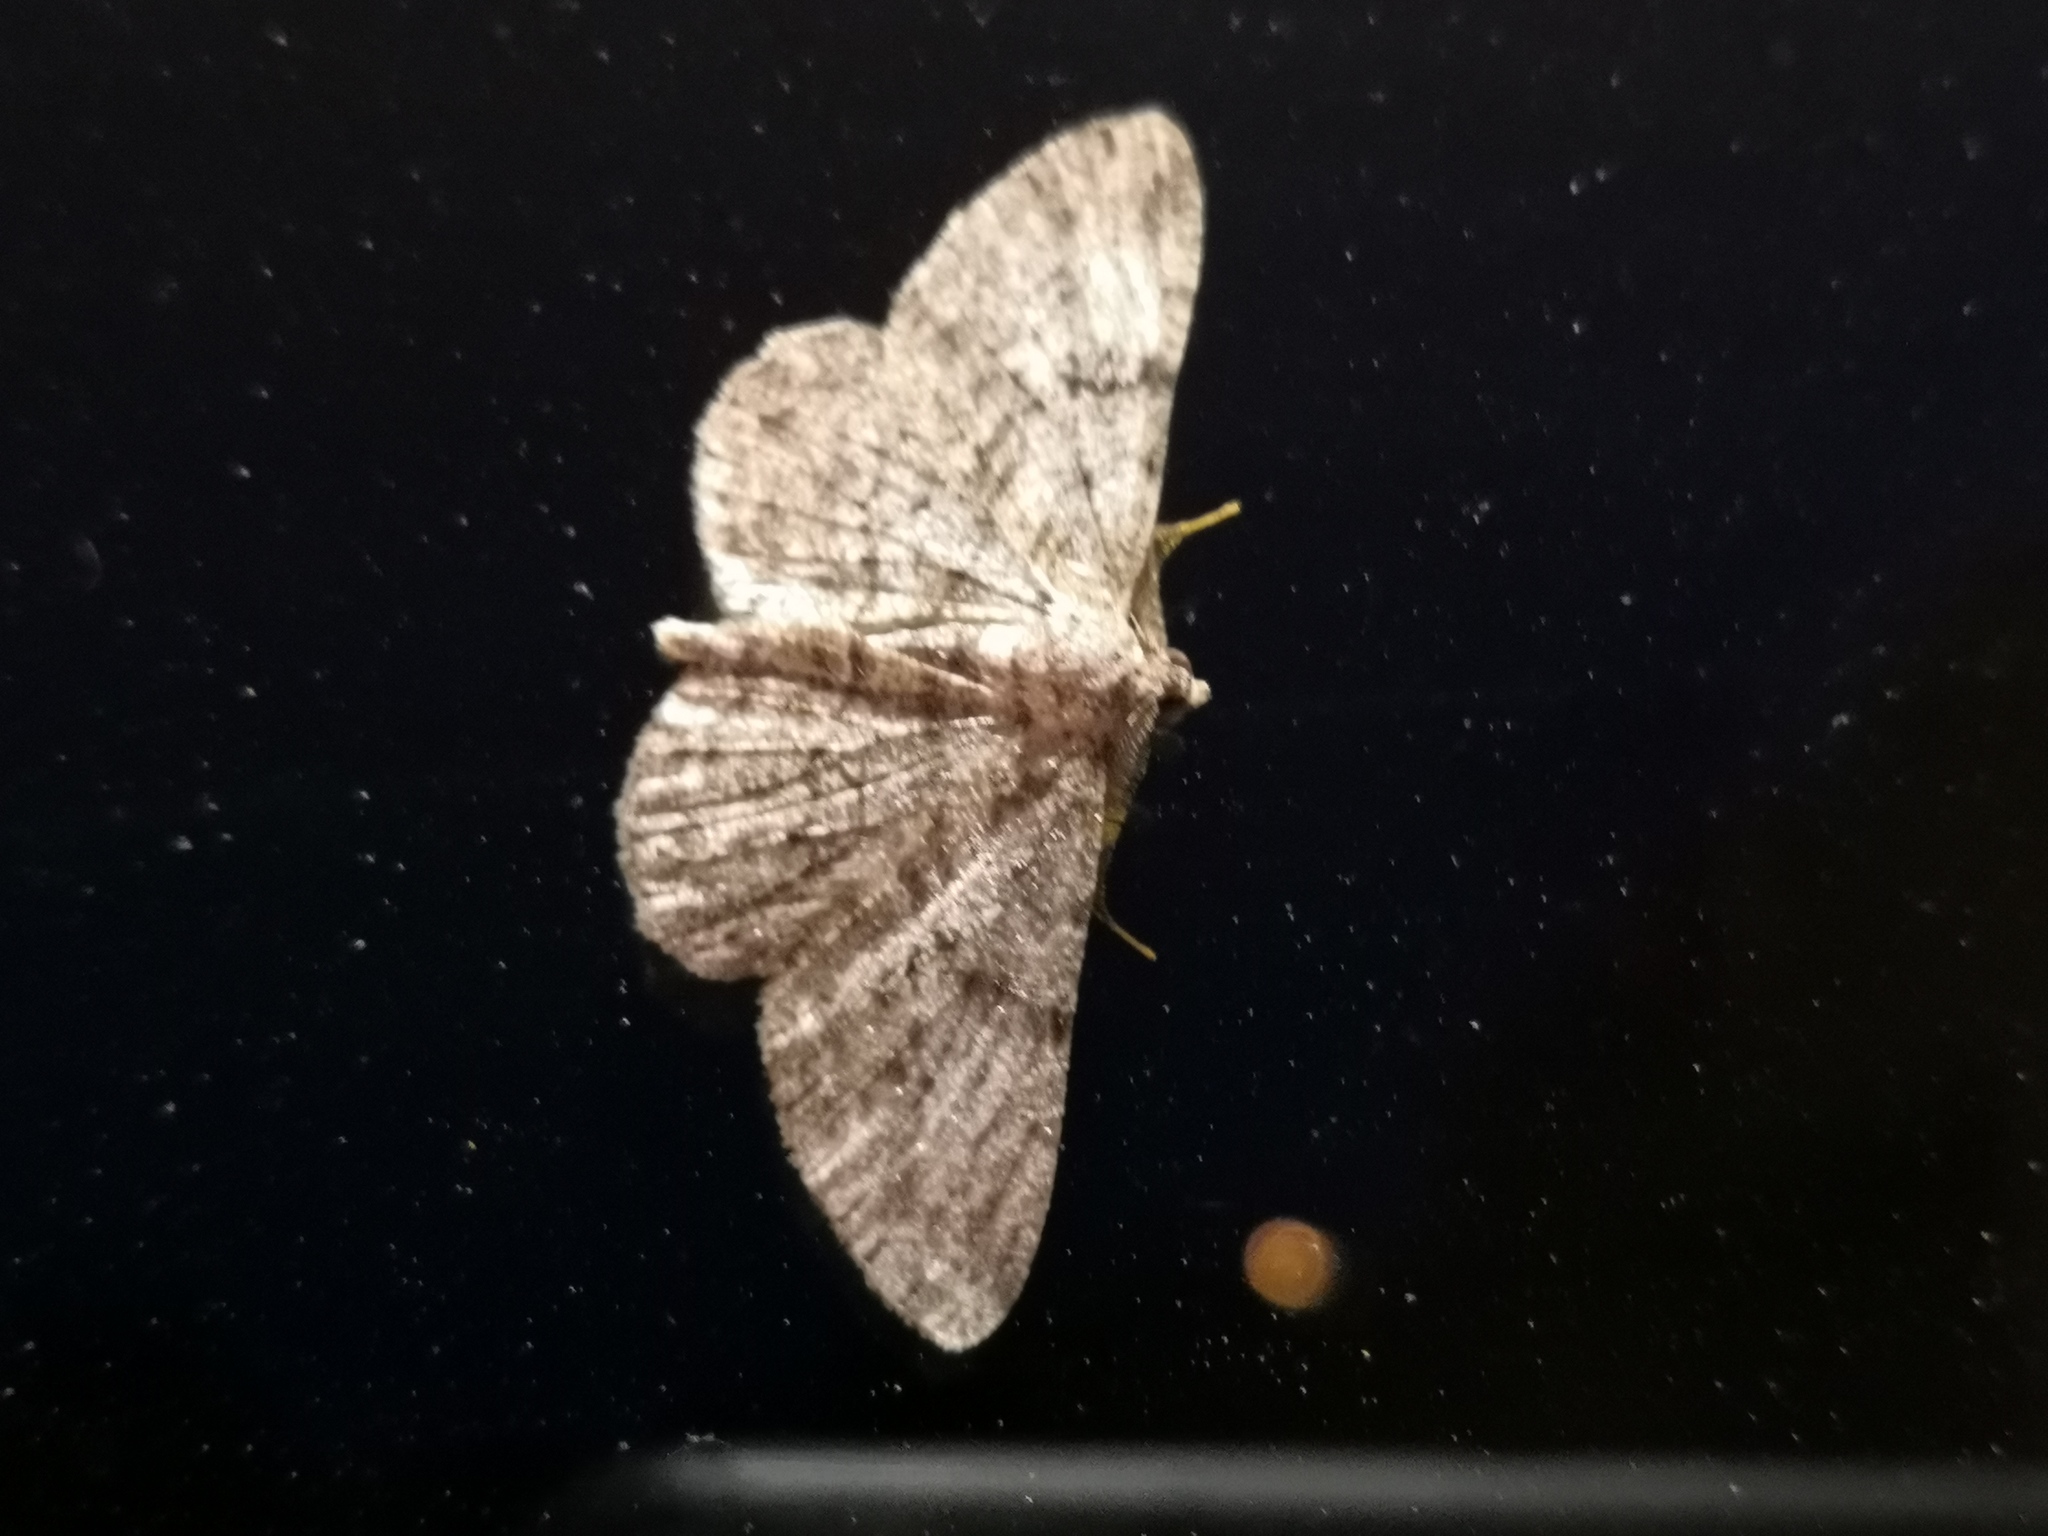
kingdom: Animalia
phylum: Arthropoda
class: Insecta
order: Lepidoptera
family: Geometridae
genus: Peribatodes
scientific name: Peribatodes rhomboidaria
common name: Willow beauty
